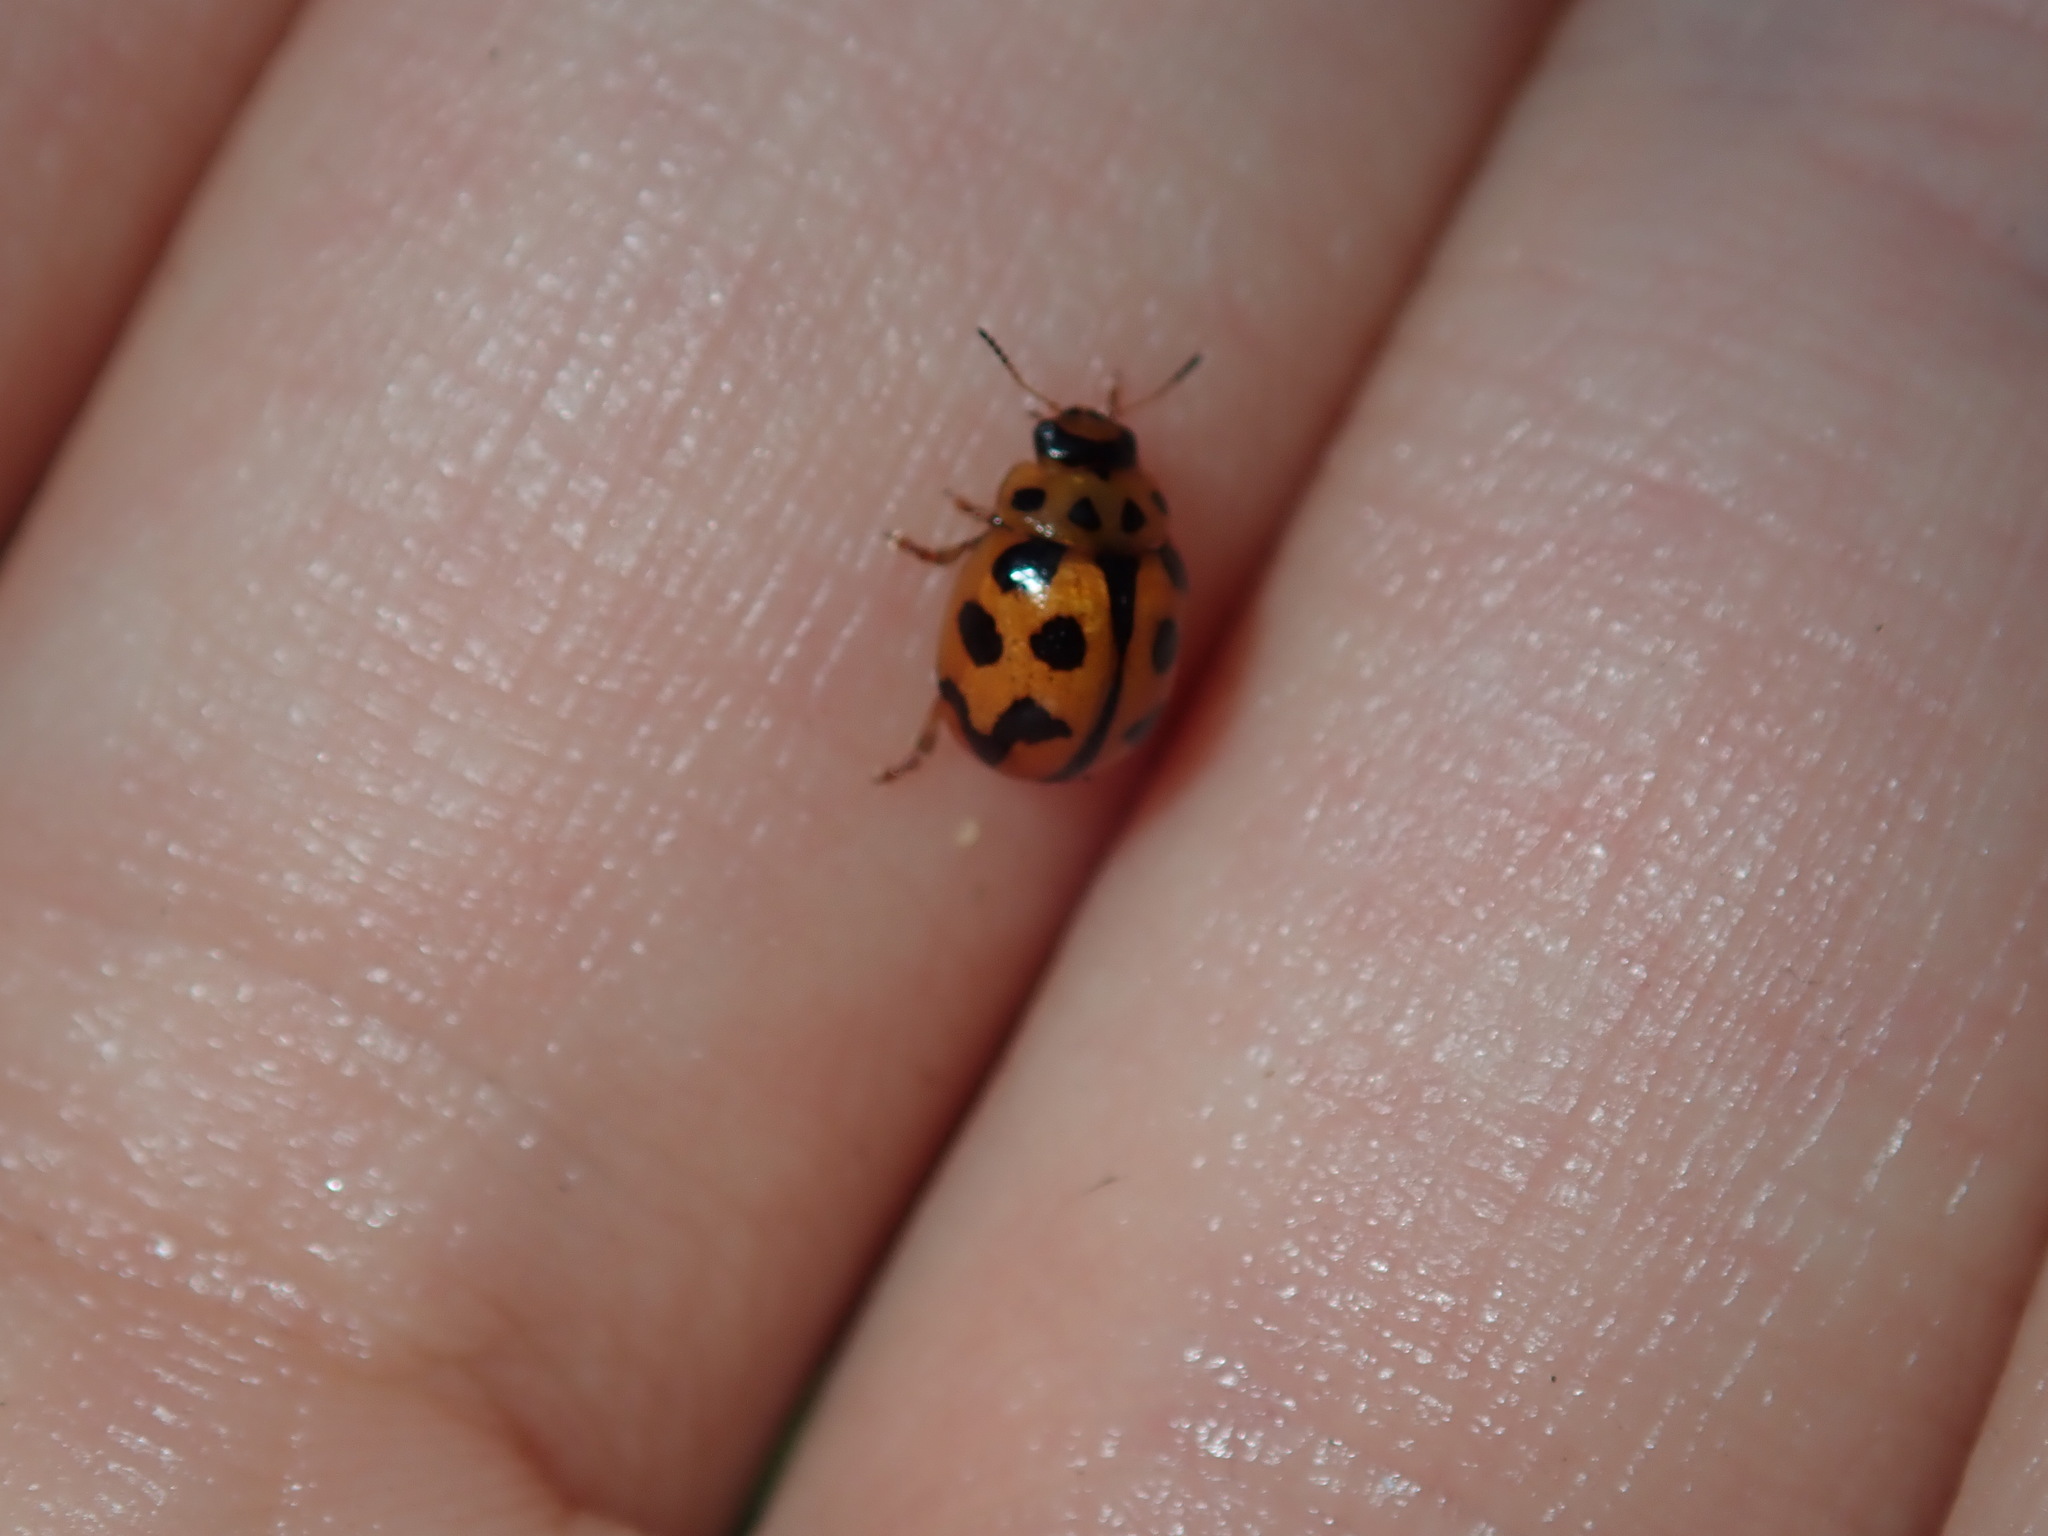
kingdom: Animalia
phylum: Arthropoda
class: Insecta
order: Coleoptera
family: Chrysomelidae
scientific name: Chrysomelidae
